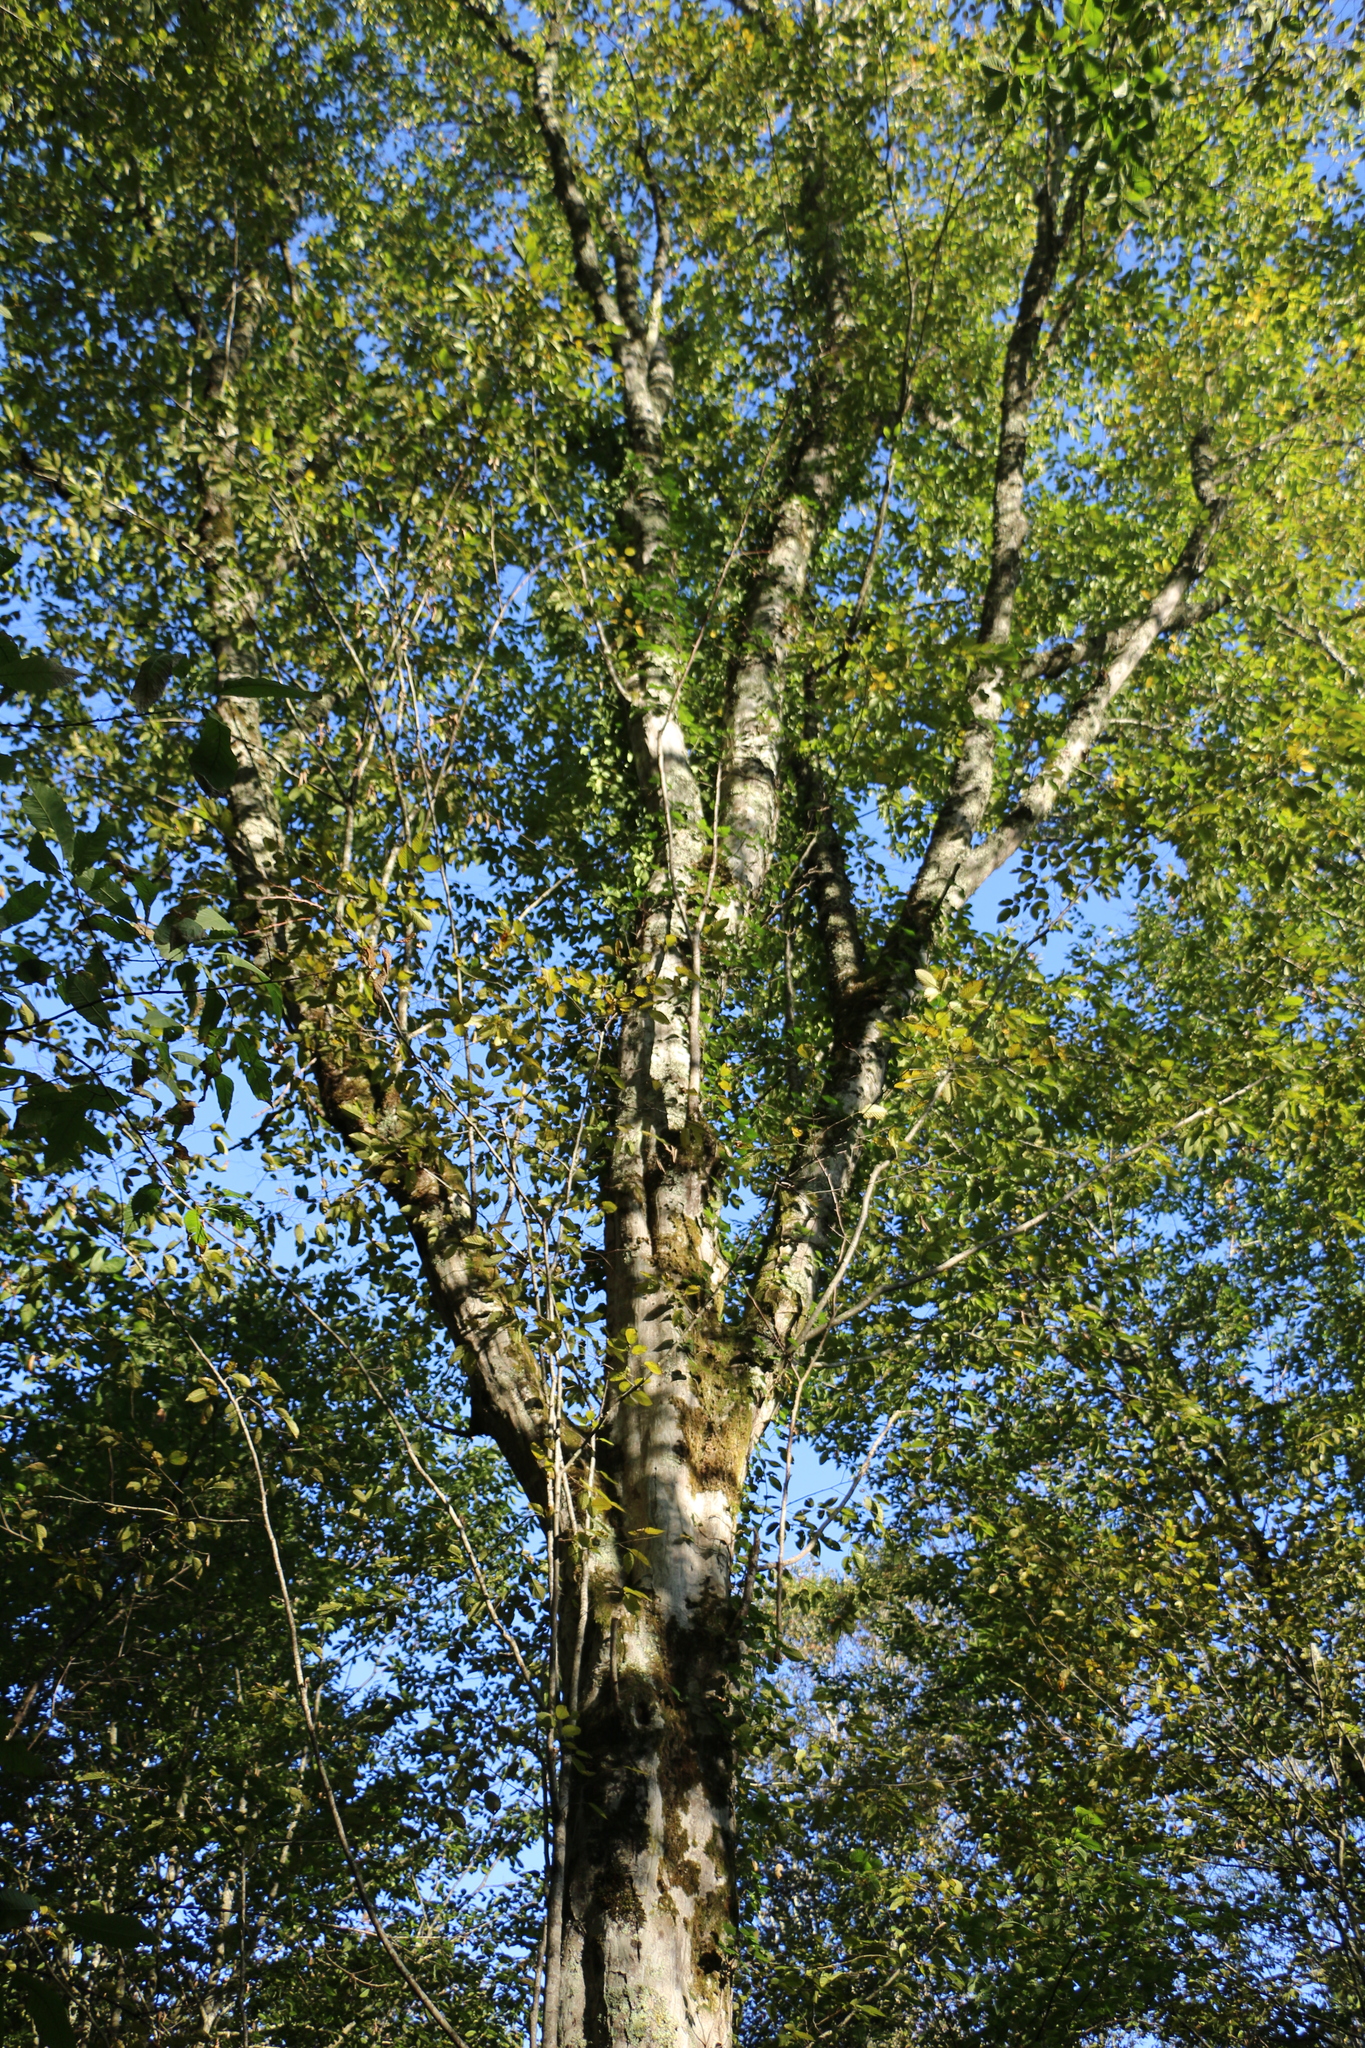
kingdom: Plantae
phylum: Tracheophyta
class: Magnoliopsida
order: Fagales
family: Betulaceae
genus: Carpinus
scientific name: Carpinus orientalis
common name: Eastern hornbeam
